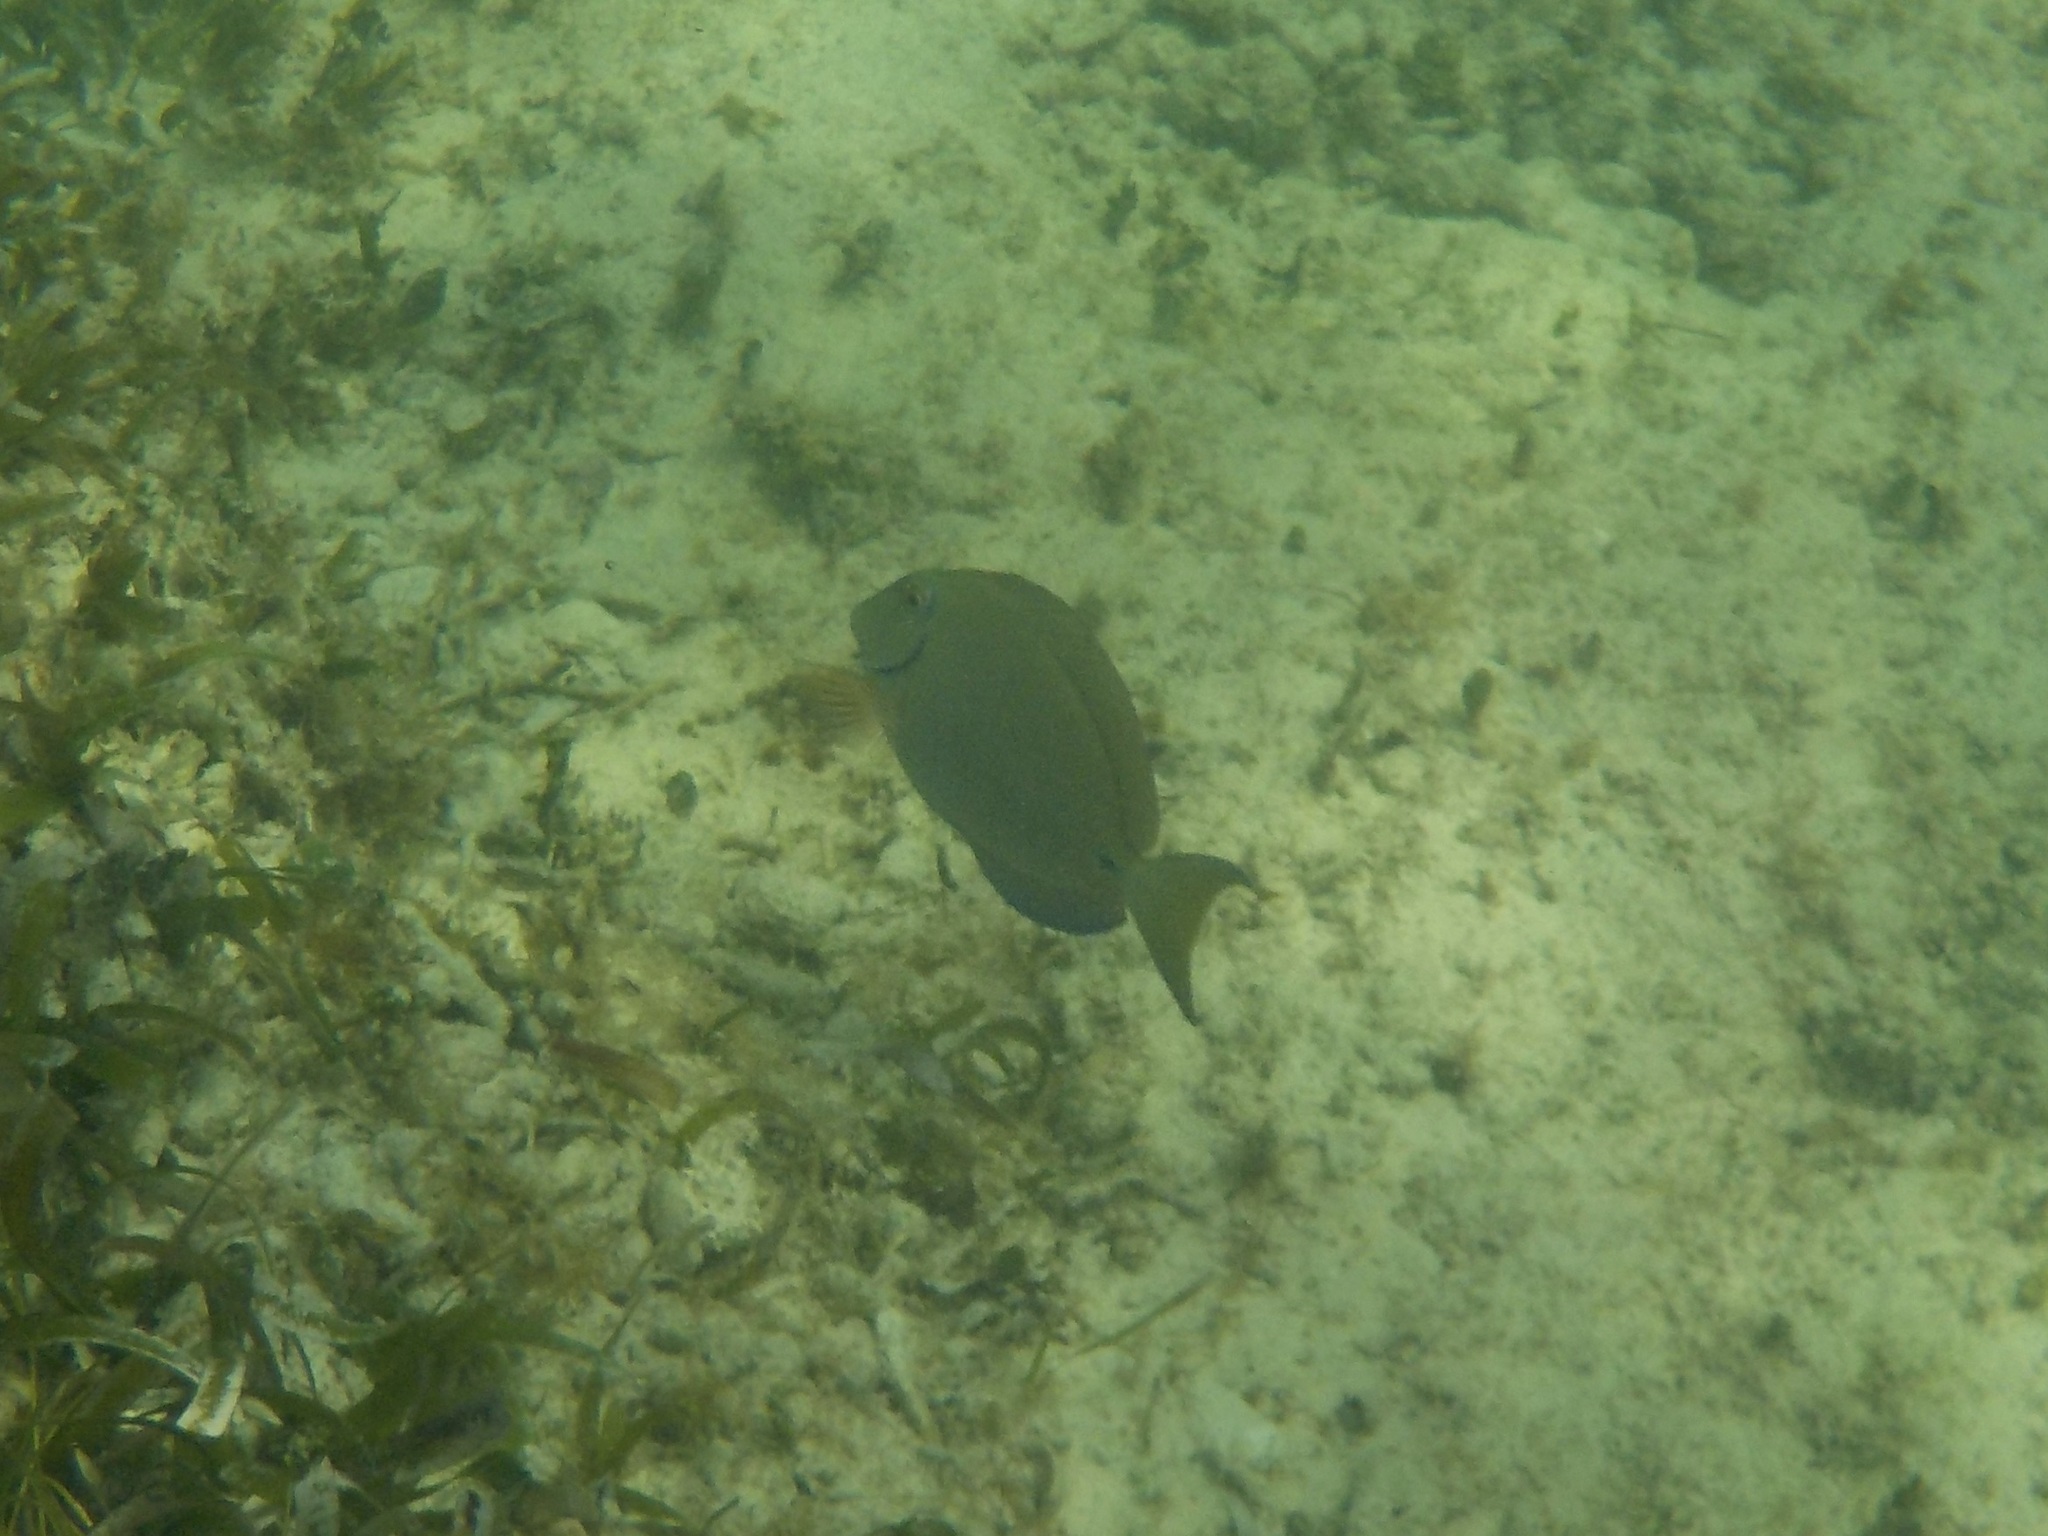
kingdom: Animalia
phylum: Chordata
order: Perciformes
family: Acanthuridae
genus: Acanthurus
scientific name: Acanthurus bahianus
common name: Ocean surgeon
